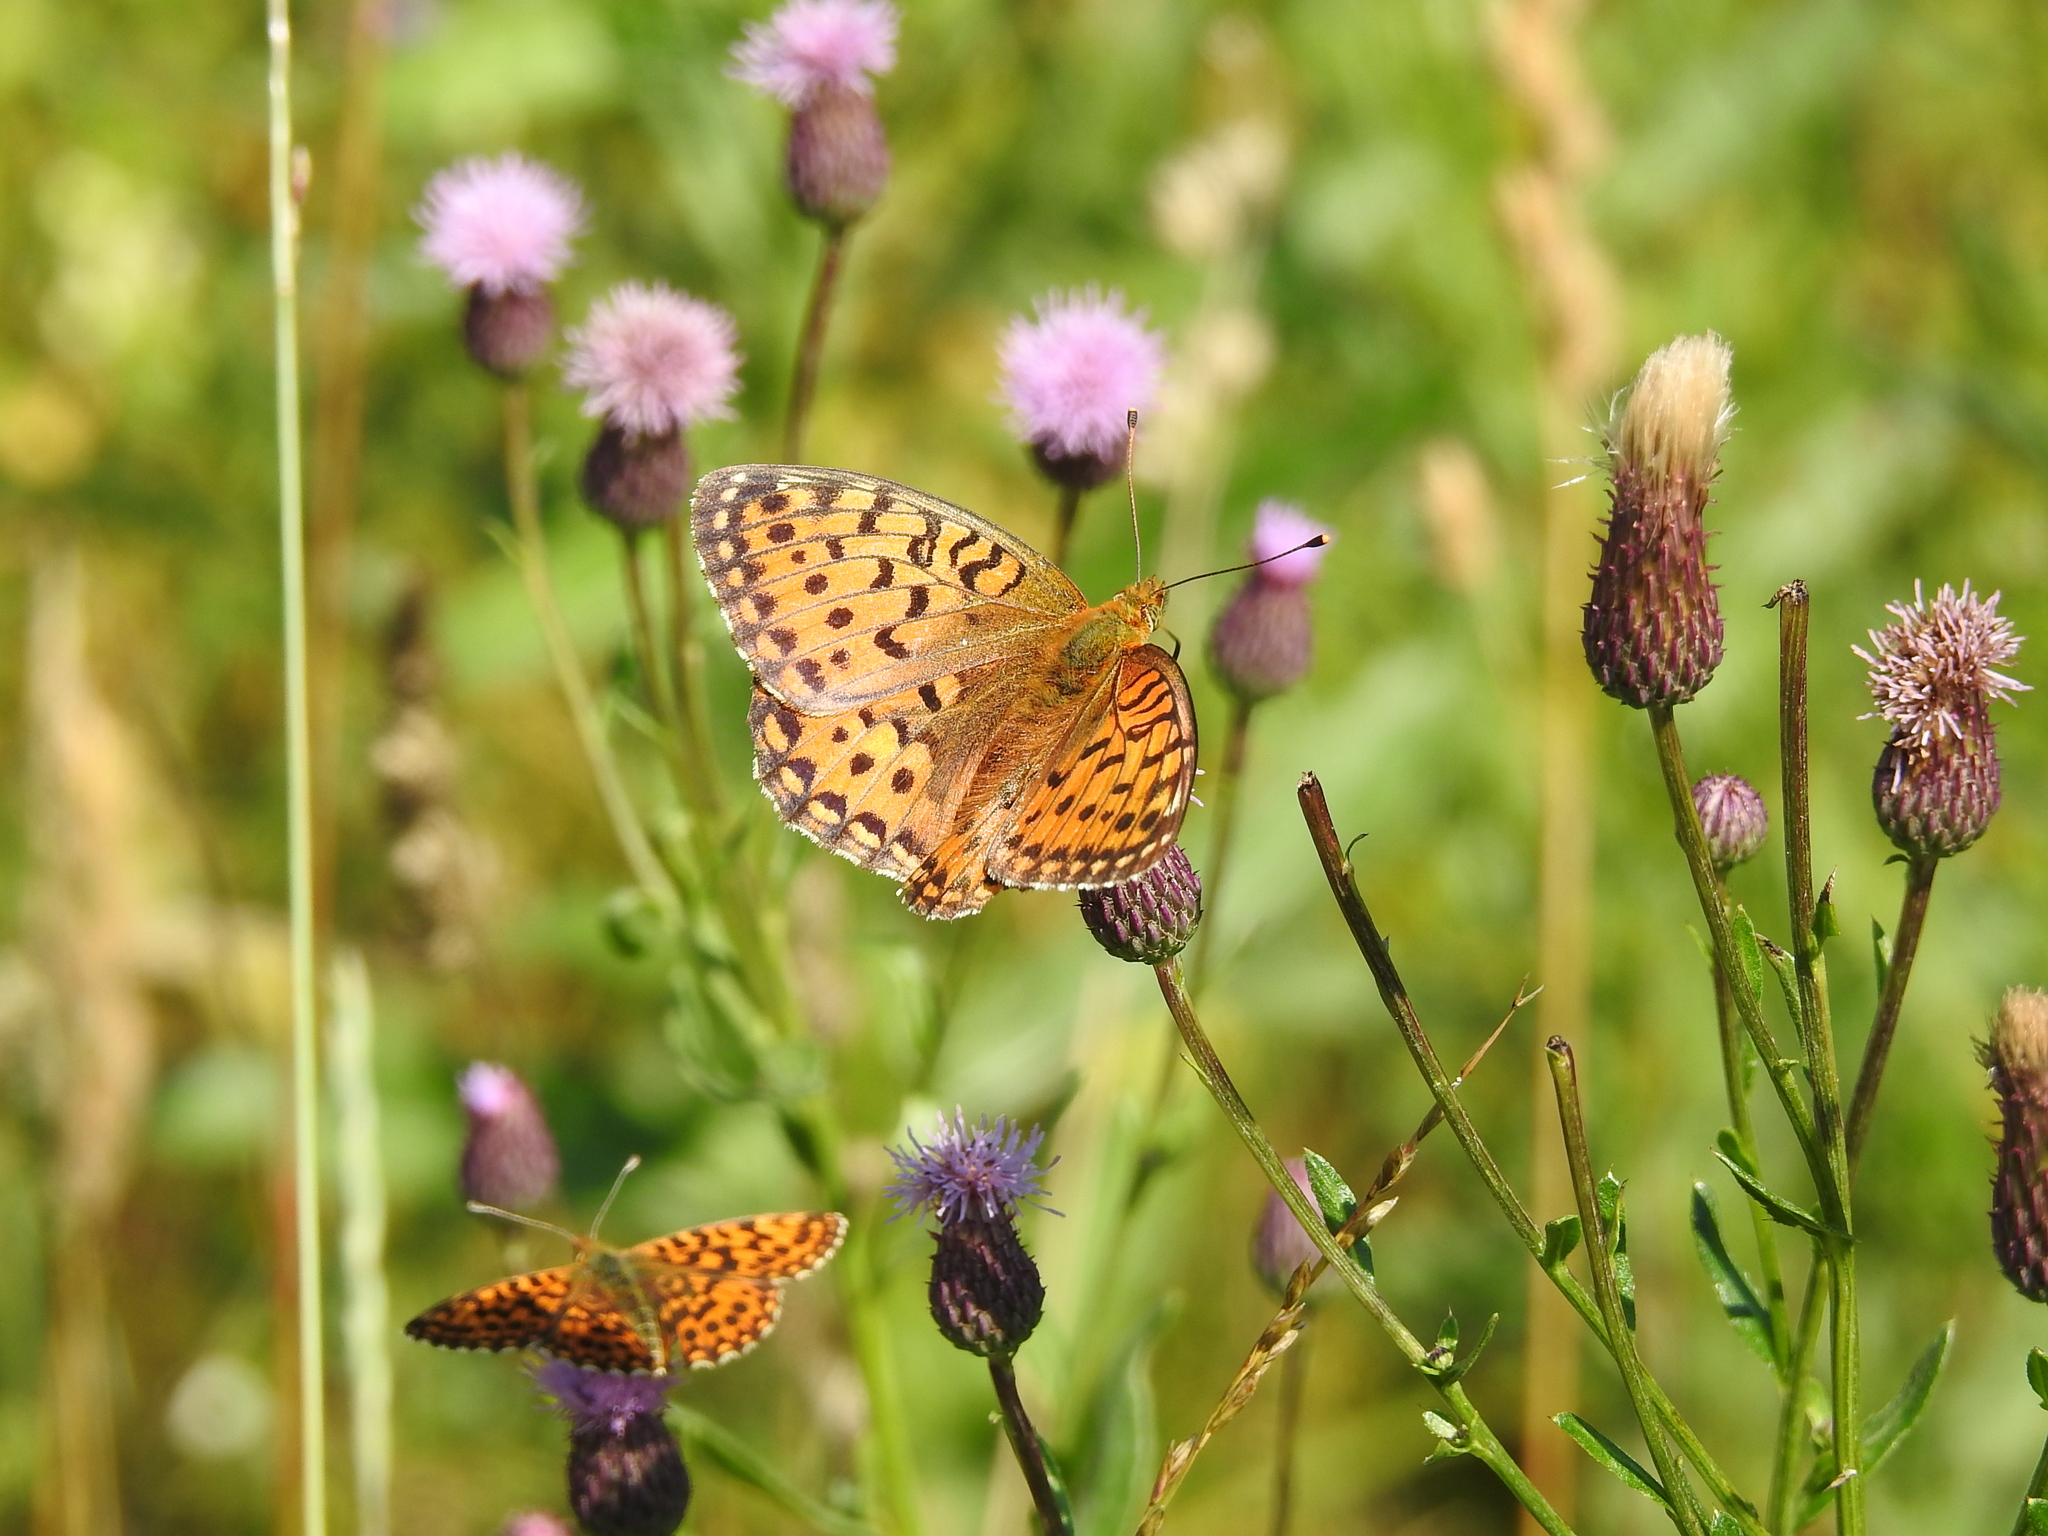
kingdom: Animalia
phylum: Arthropoda
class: Insecta
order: Lepidoptera
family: Nymphalidae
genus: Speyeria
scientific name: Speyeria aglaja
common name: Dark green fritillary
